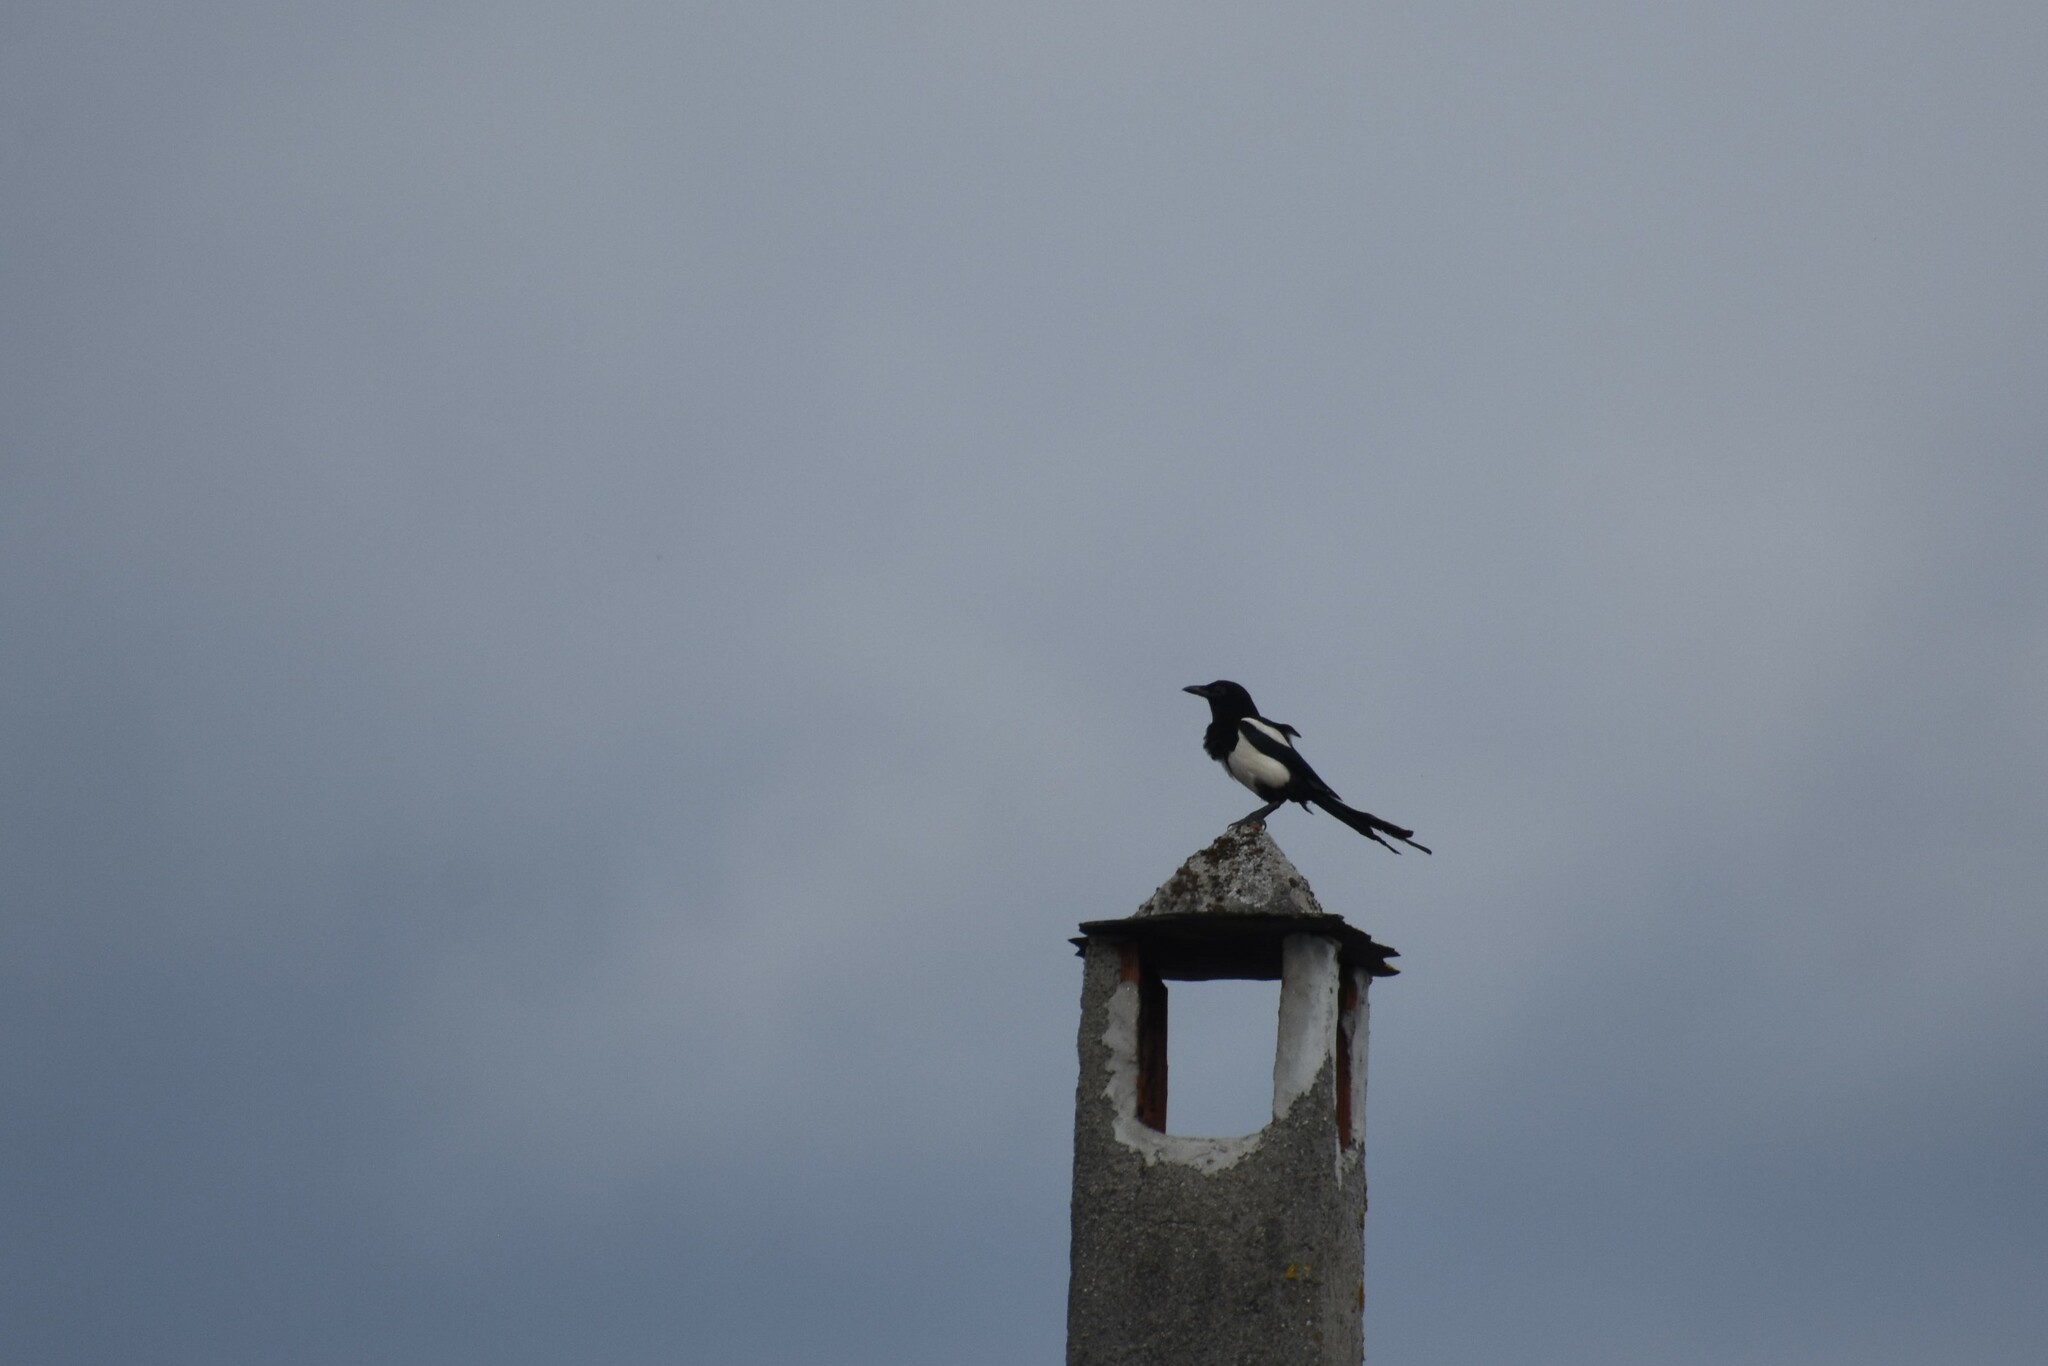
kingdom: Animalia
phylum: Chordata
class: Aves
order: Passeriformes
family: Corvidae
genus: Pica
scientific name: Pica pica
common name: Eurasian magpie
